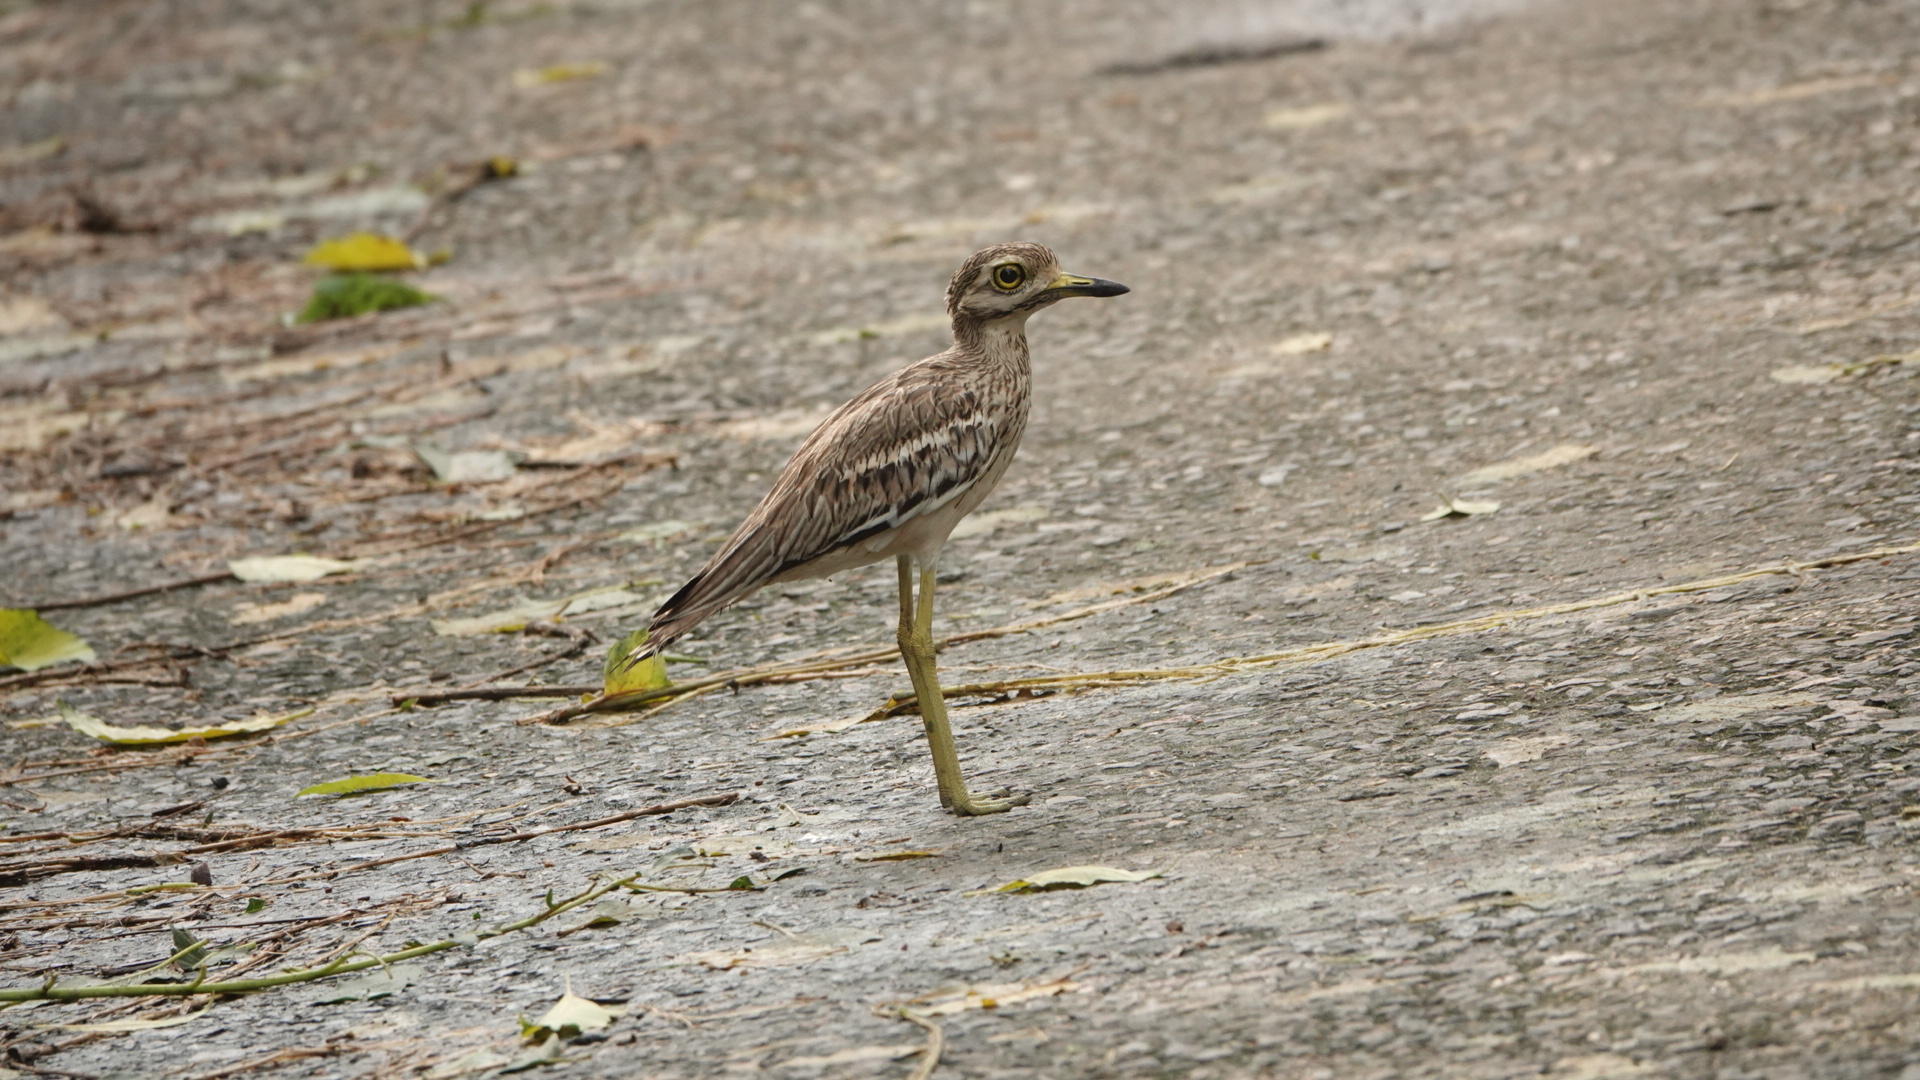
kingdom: Animalia
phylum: Chordata
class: Aves
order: Charadriiformes
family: Burhinidae
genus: Burhinus
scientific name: Burhinus indicus
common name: Indian thick-knee
